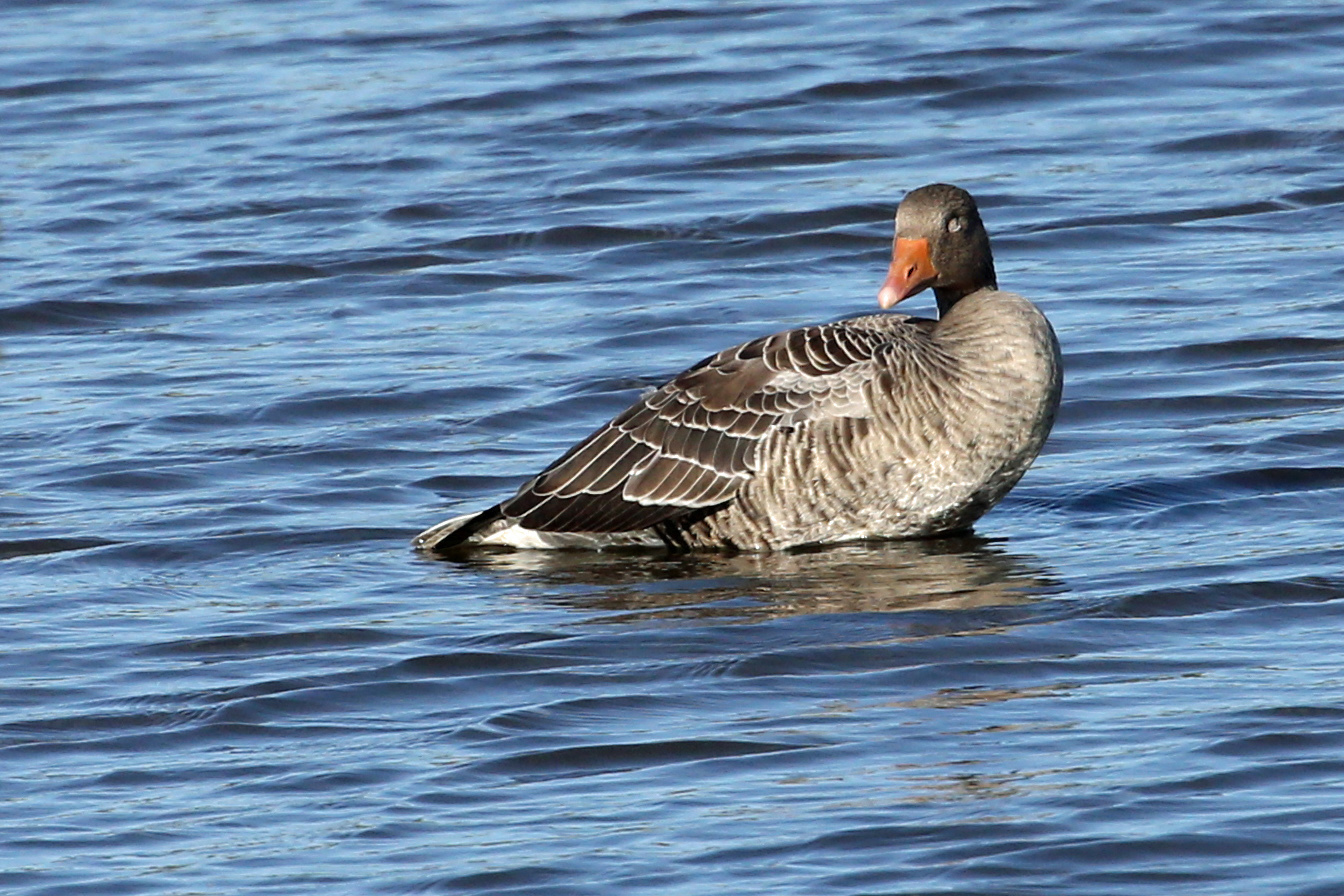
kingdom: Animalia
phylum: Chordata
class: Aves
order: Anseriformes
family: Anatidae
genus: Anser
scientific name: Anser anser
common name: Greylag goose
